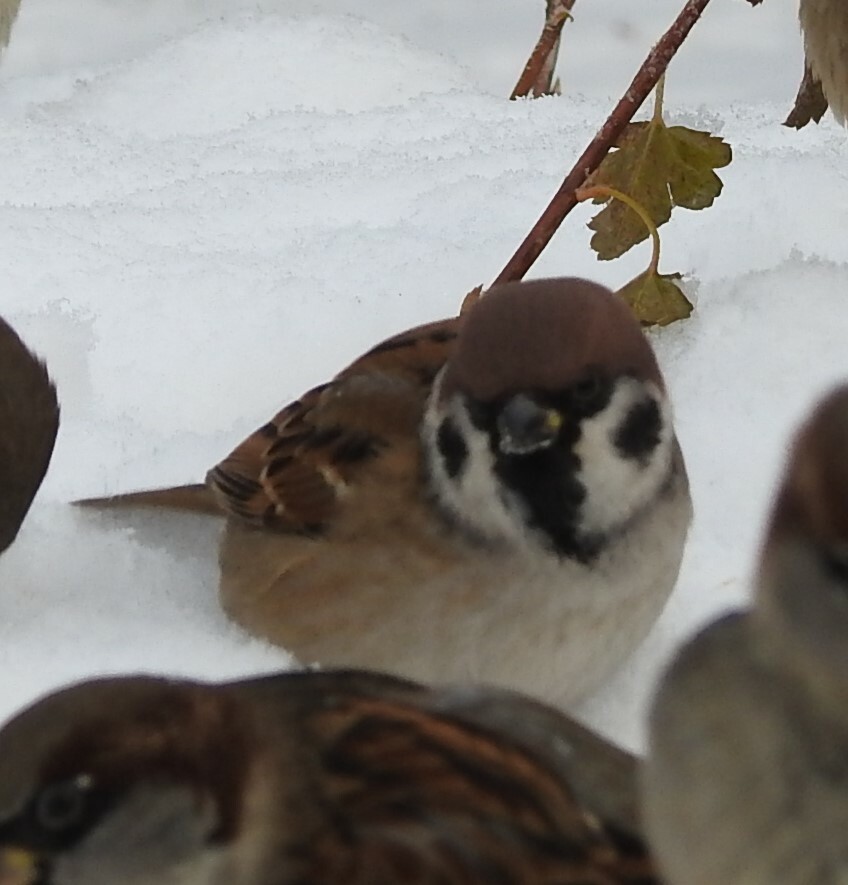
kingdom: Animalia
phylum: Chordata
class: Aves
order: Passeriformes
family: Passeridae
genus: Passer
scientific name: Passer montanus
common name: Eurasian tree sparrow
